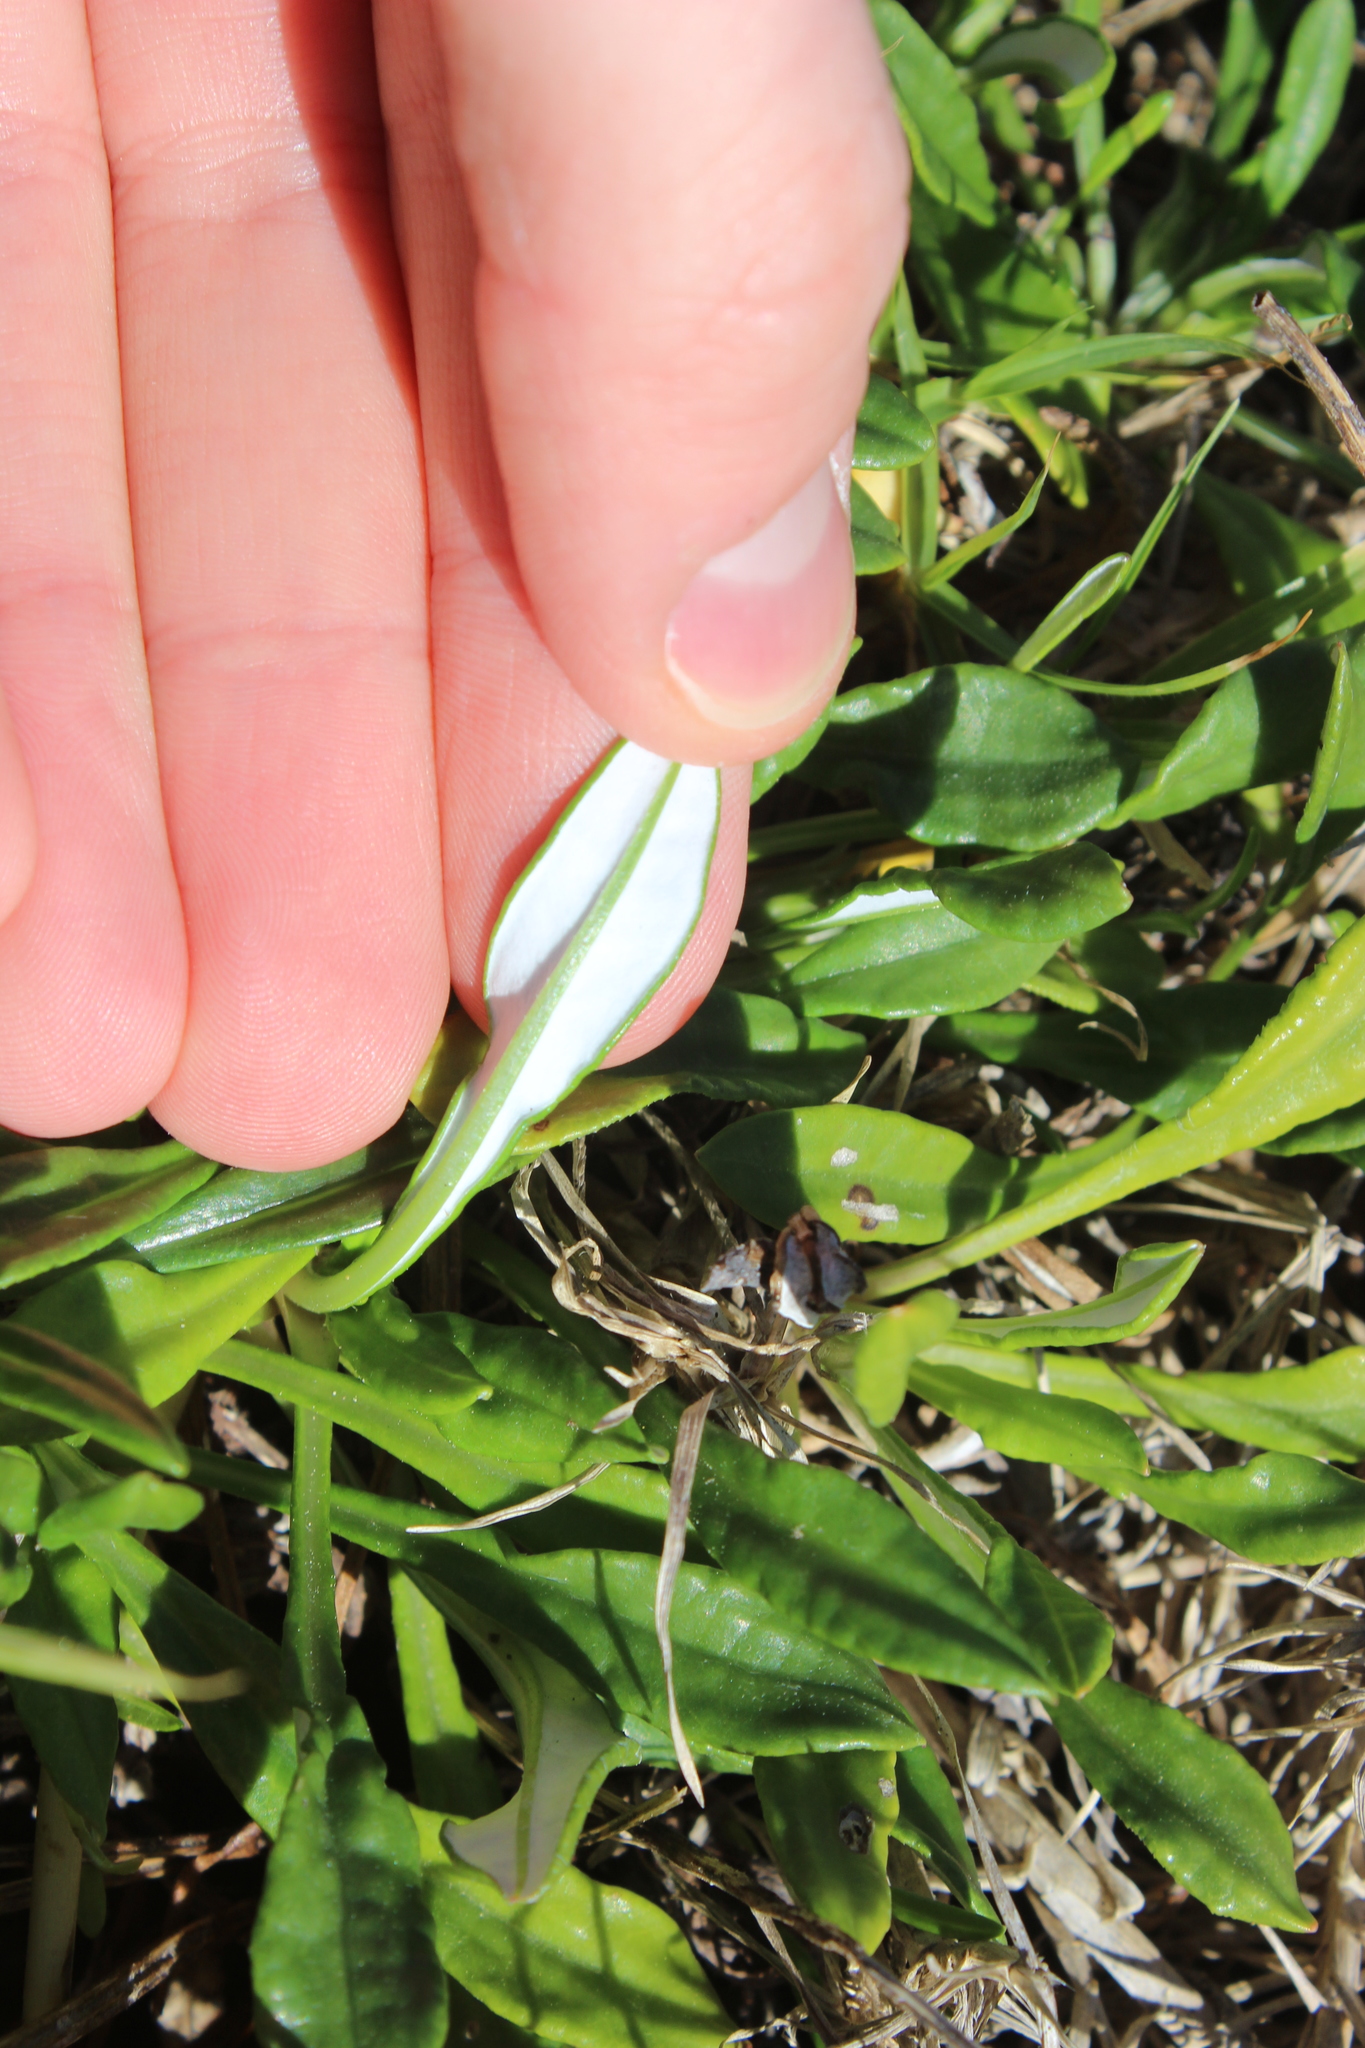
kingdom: Plantae
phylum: Tracheophyta
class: Magnoliopsida
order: Asterales
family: Asteraceae
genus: Gazania
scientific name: Gazania splendens
